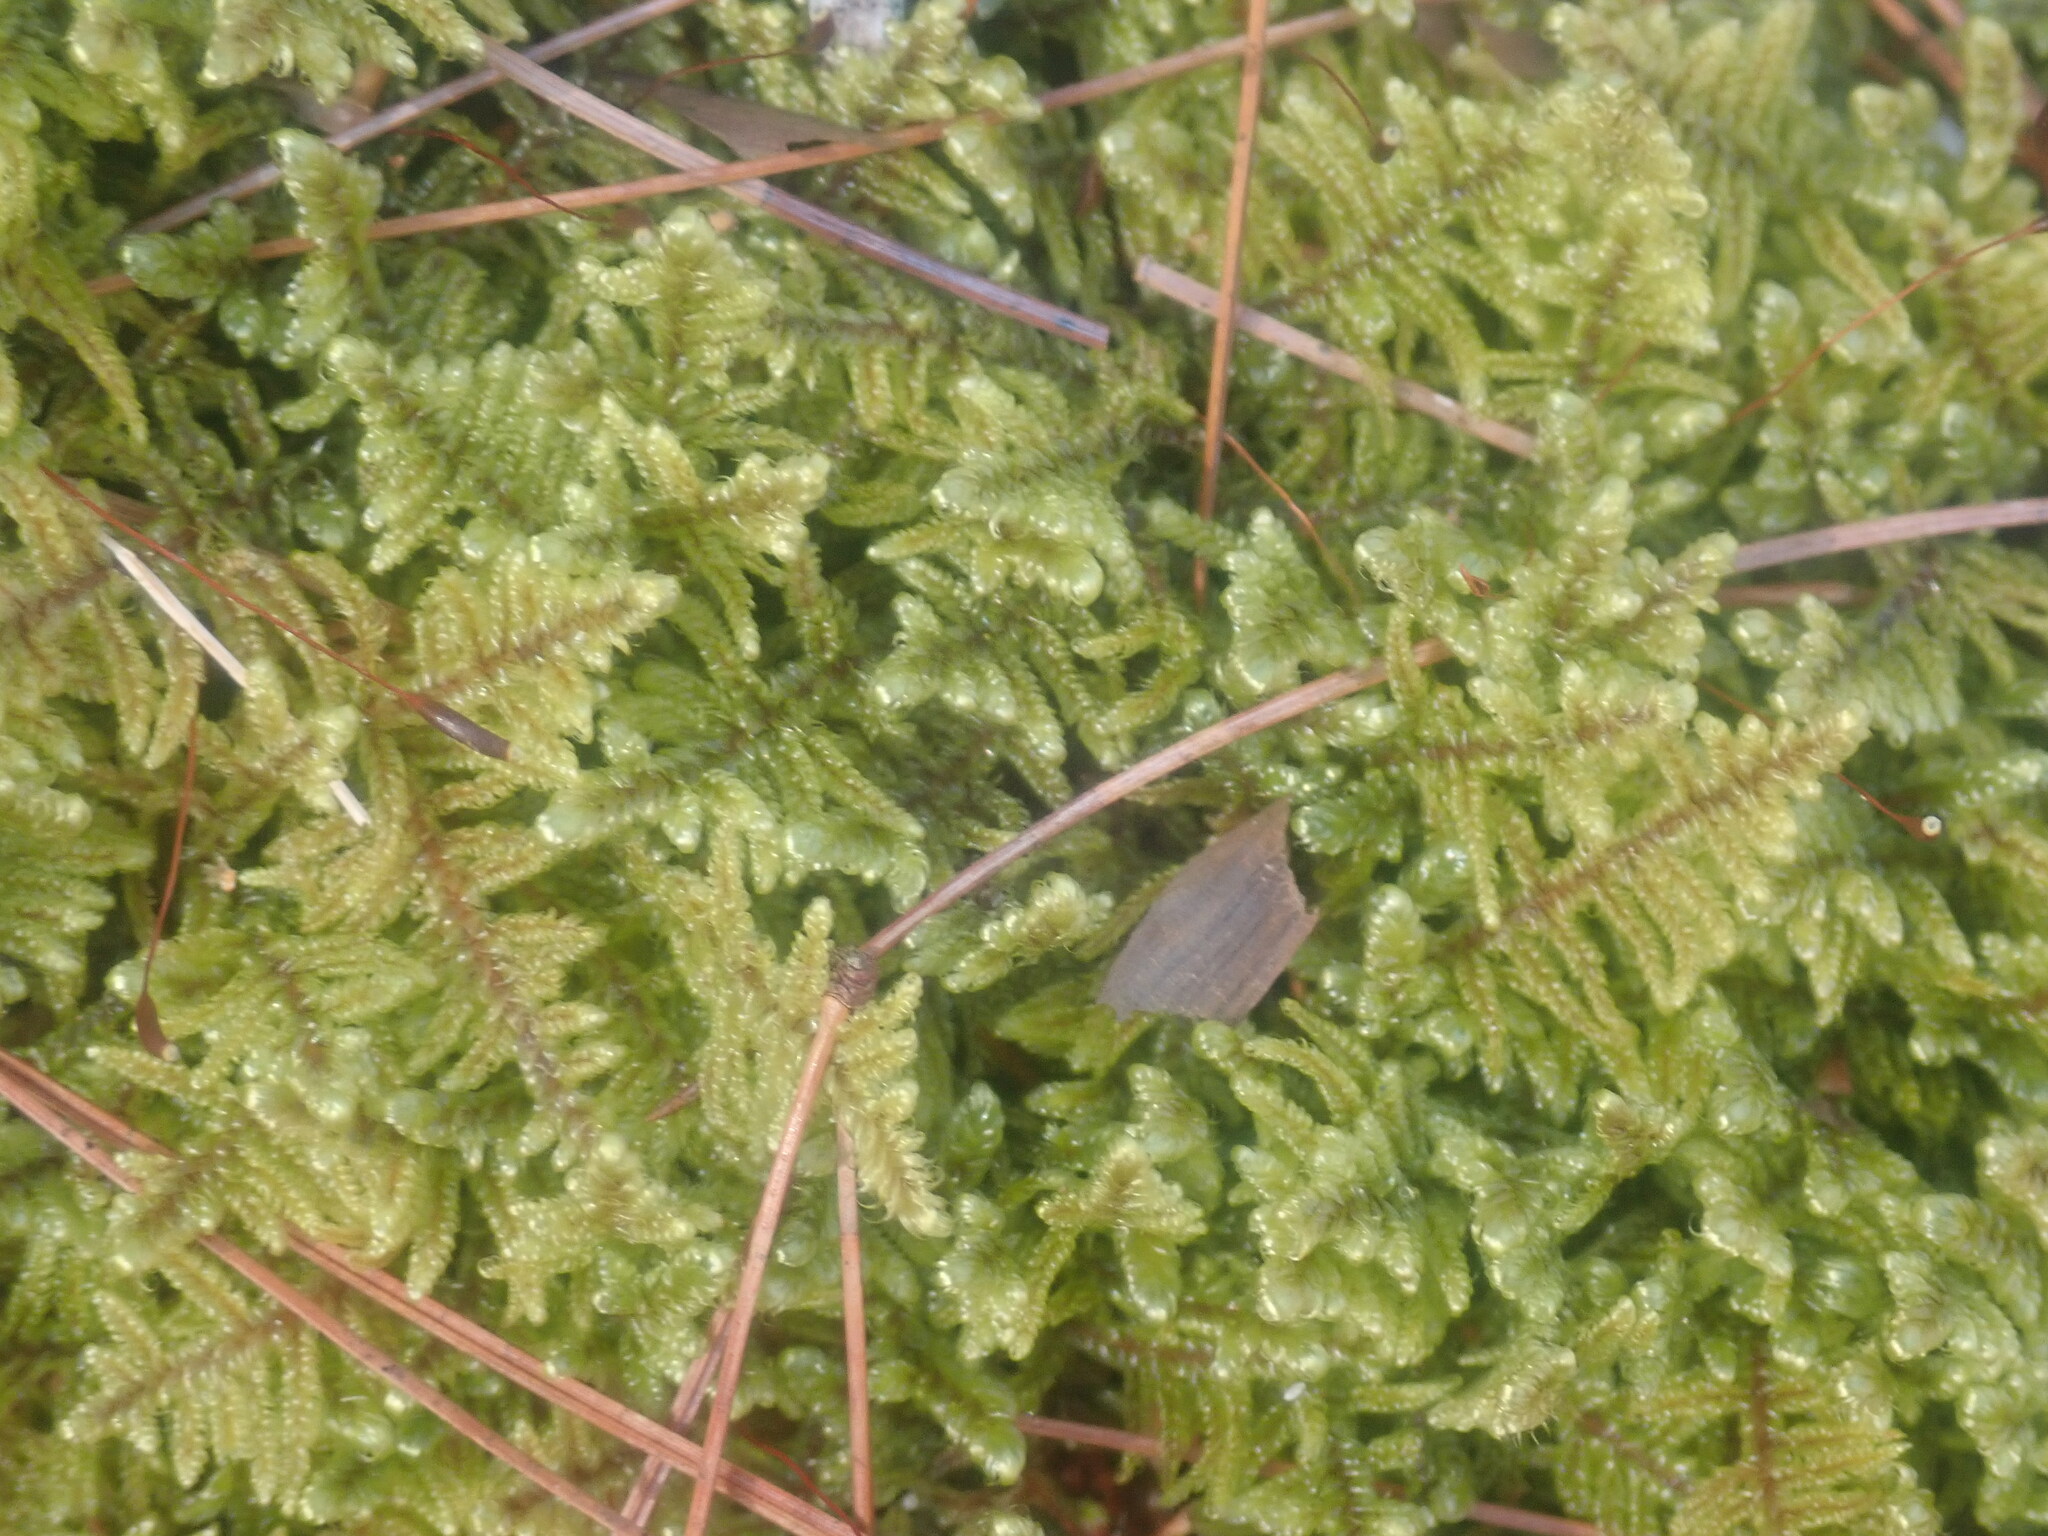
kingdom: Plantae
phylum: Bryophyta
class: Bryopsida
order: Hypnales
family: Callicladiaceae
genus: Callicladium
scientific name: Callicladium imponens
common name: Brocade moss
